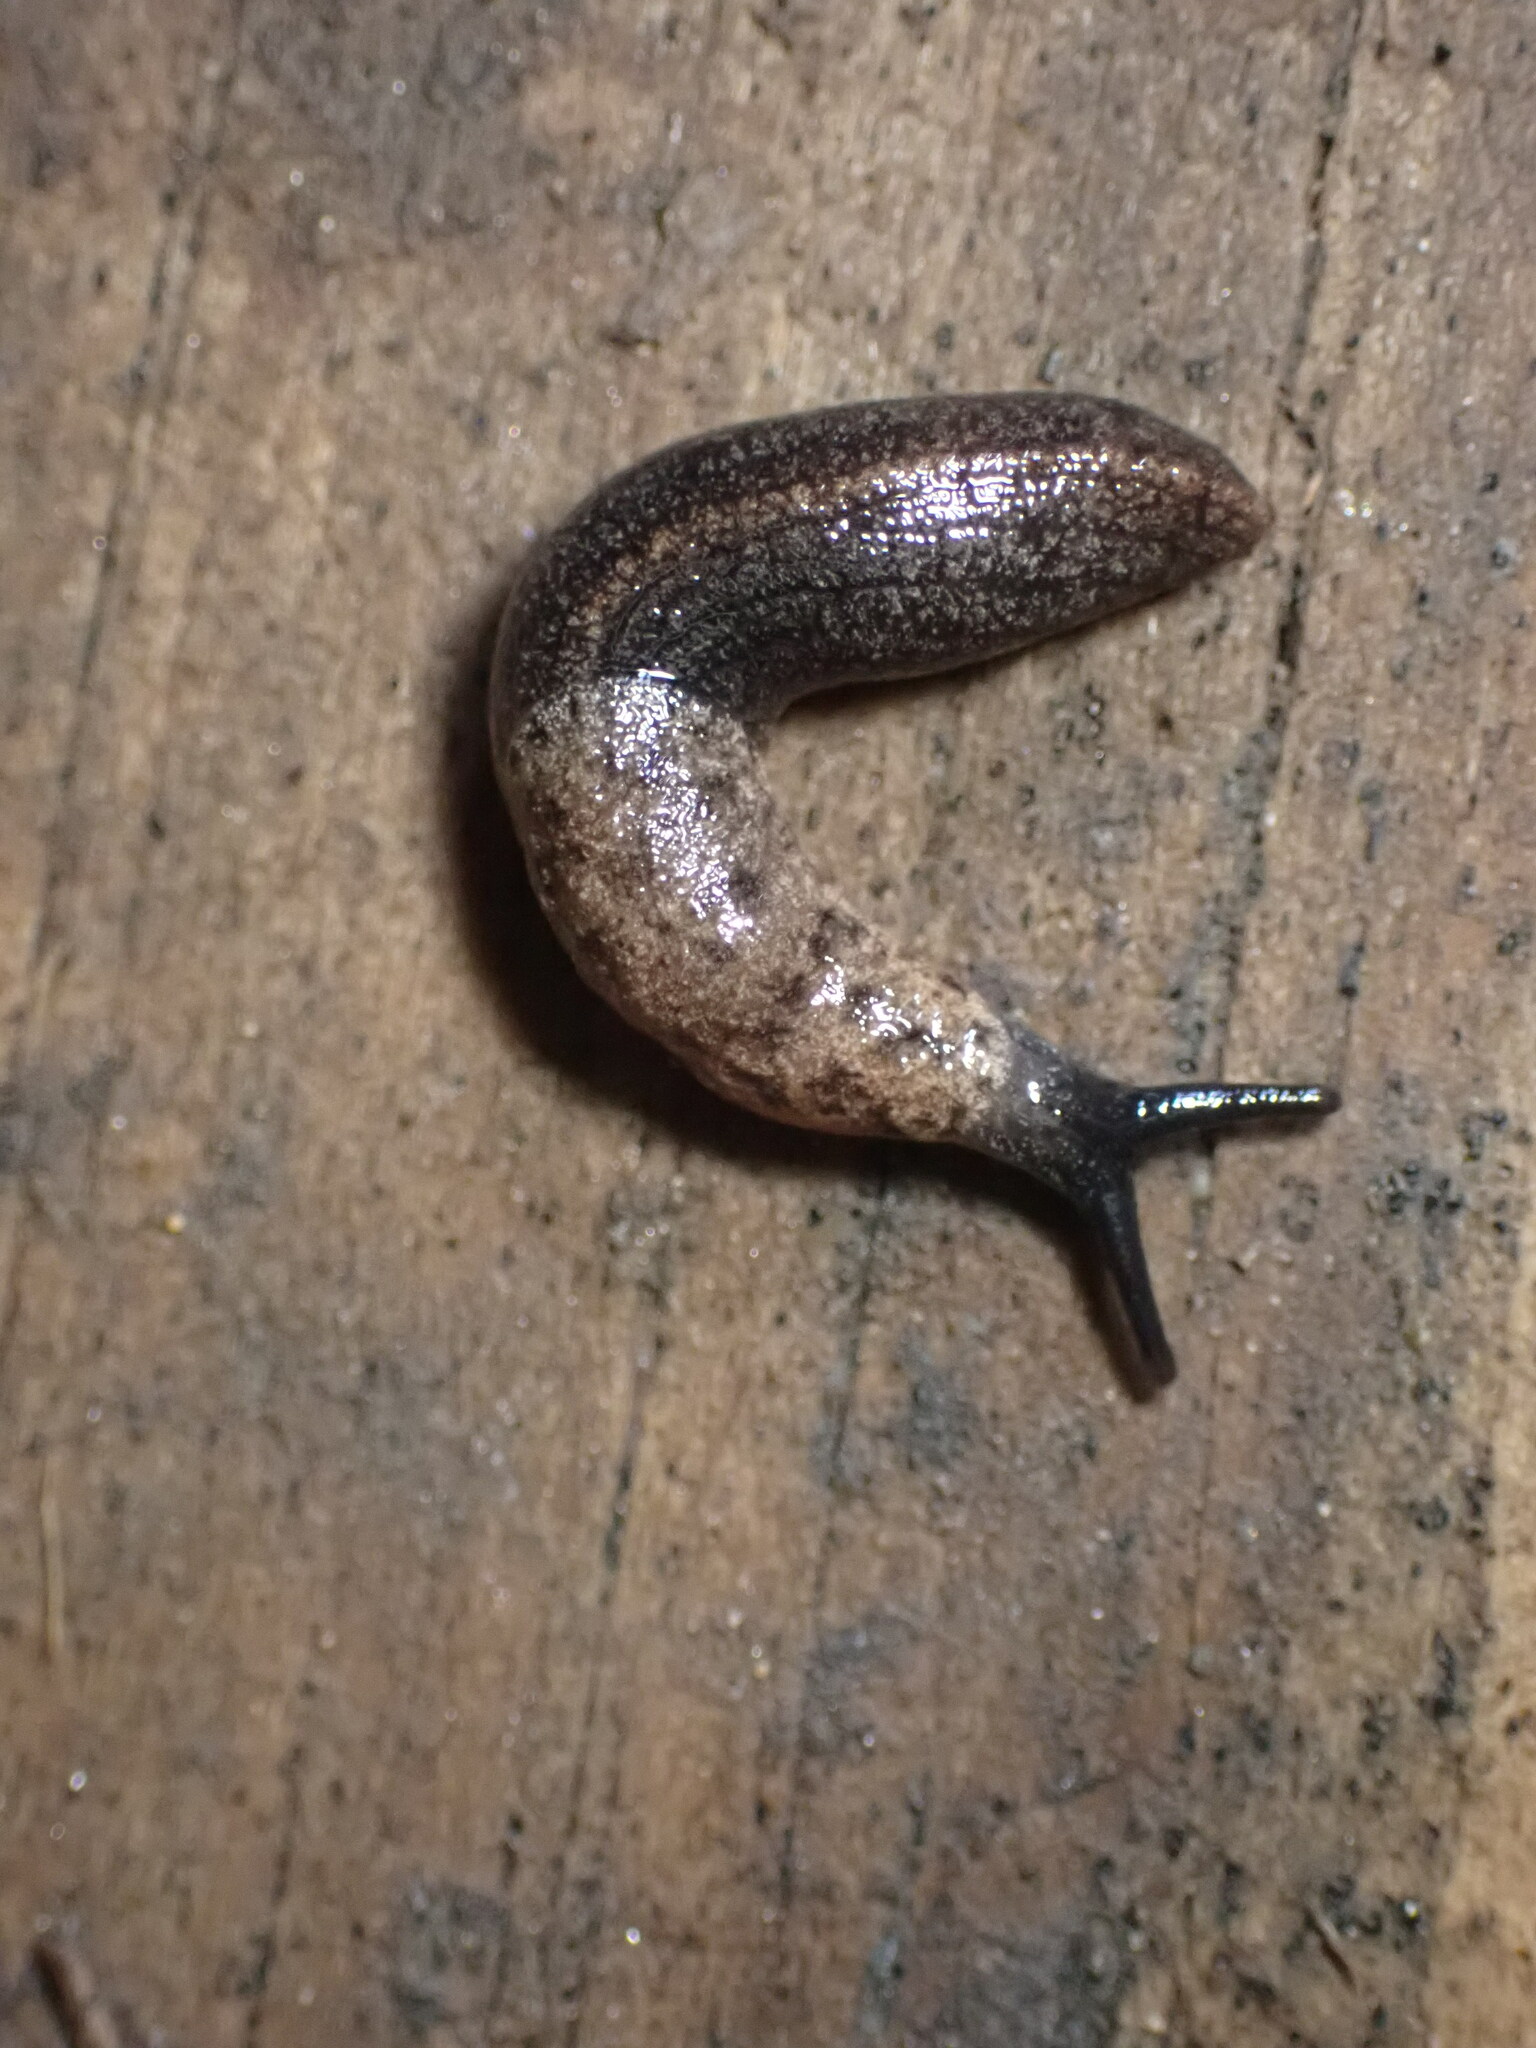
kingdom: Animalia
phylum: Mollusca
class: Gastropoda
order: Stylommatophora
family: Ariolimacidae
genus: Hesperarion
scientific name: Hesperarion niger
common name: Black western slug
